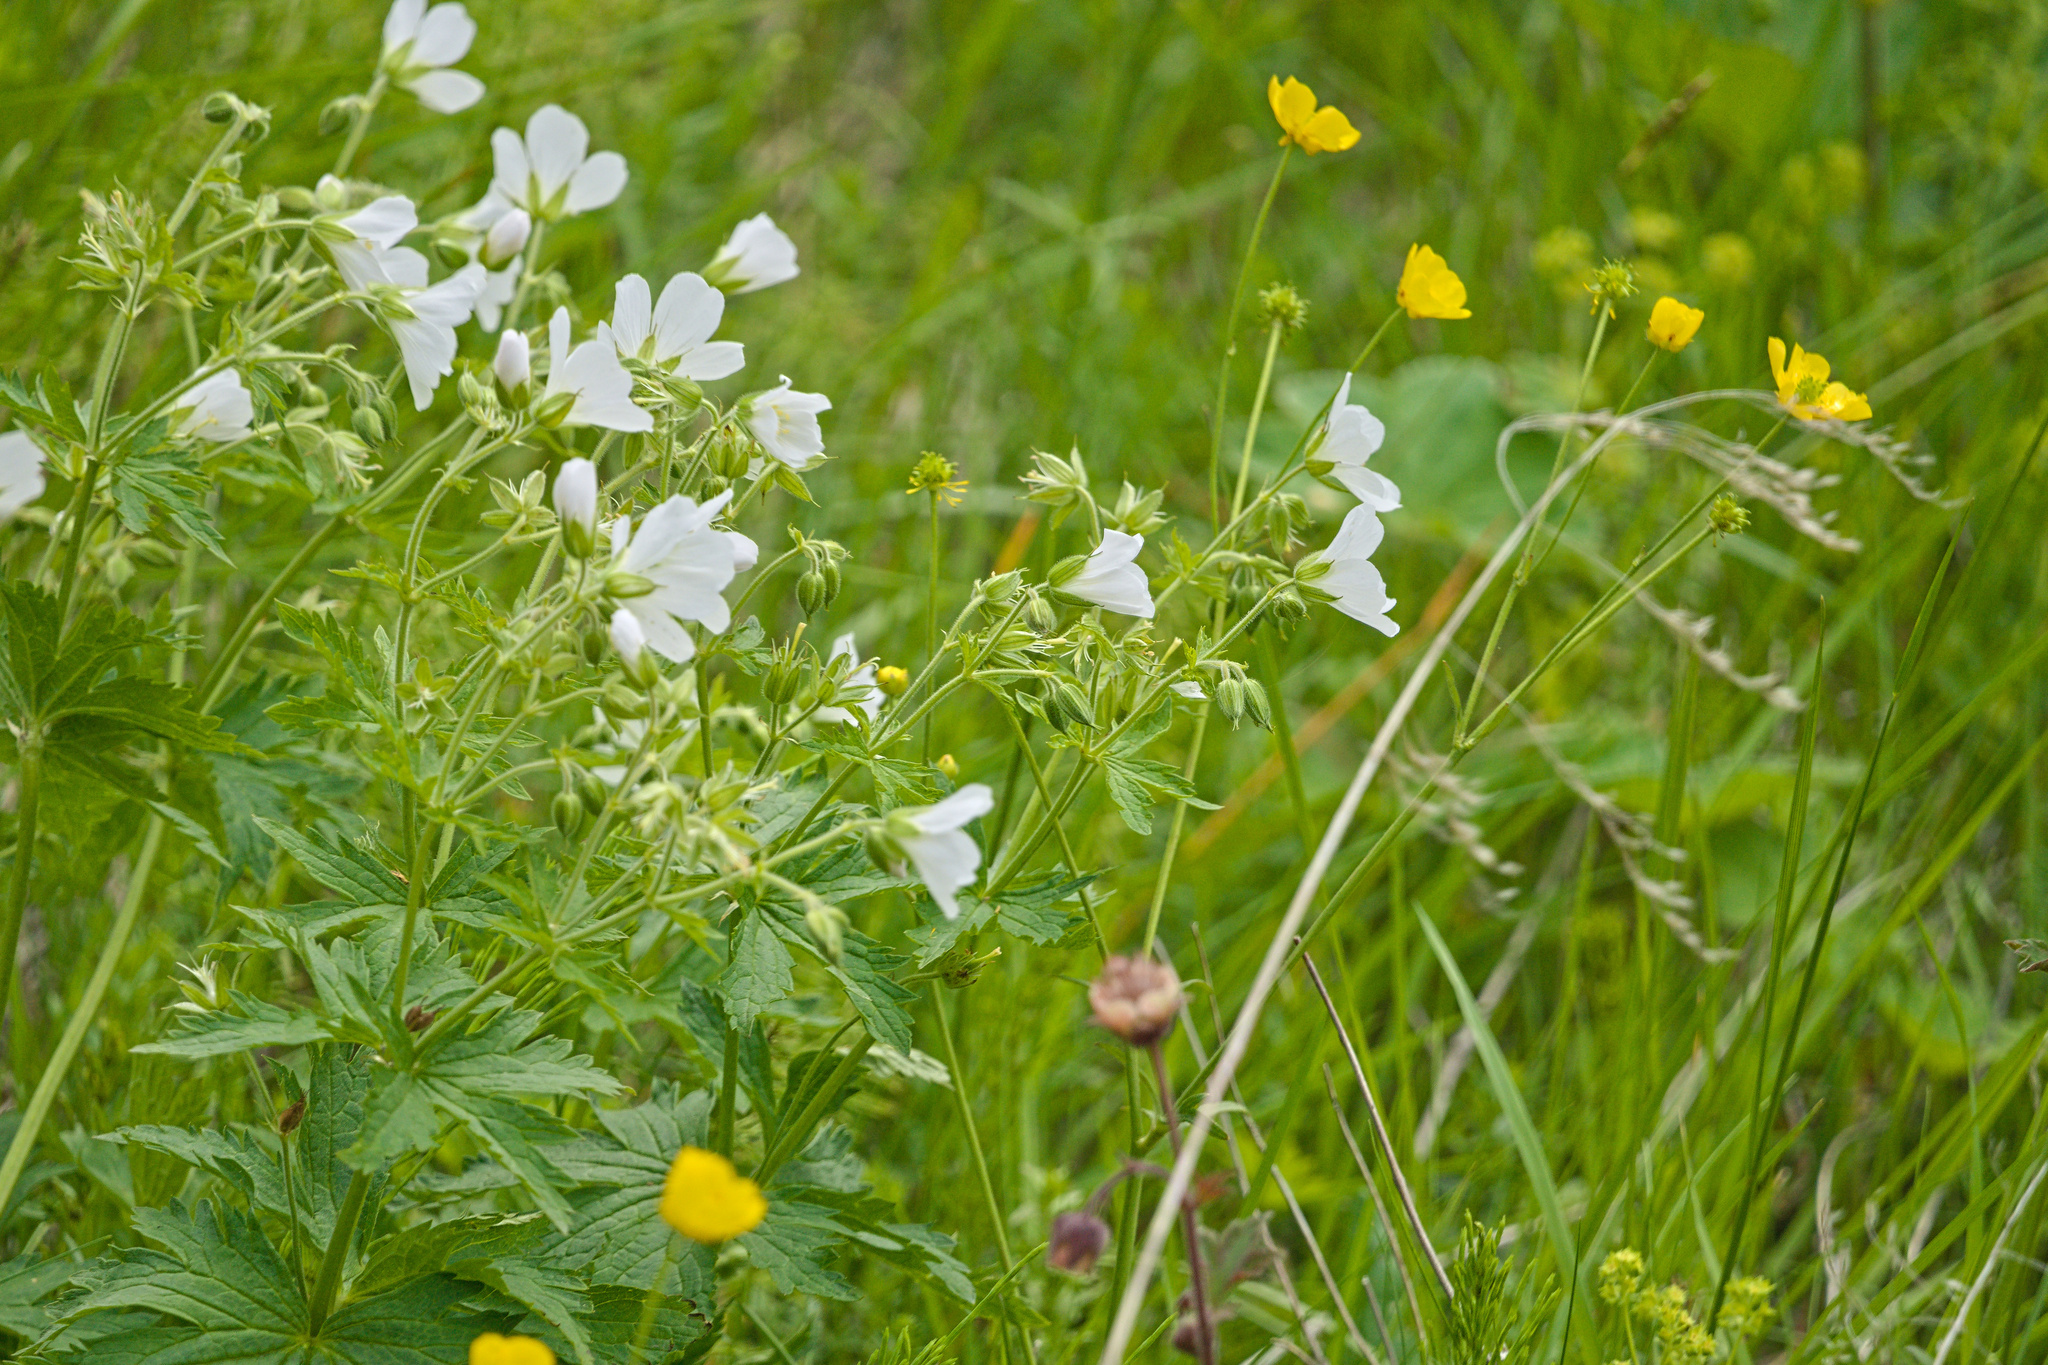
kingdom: Plantae
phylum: Tracheophyta
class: Magnoliopsida
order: Geraniales
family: Geraniaceae
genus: Geranium
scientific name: Geranium sylvaticum
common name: Wood crane's-bill
